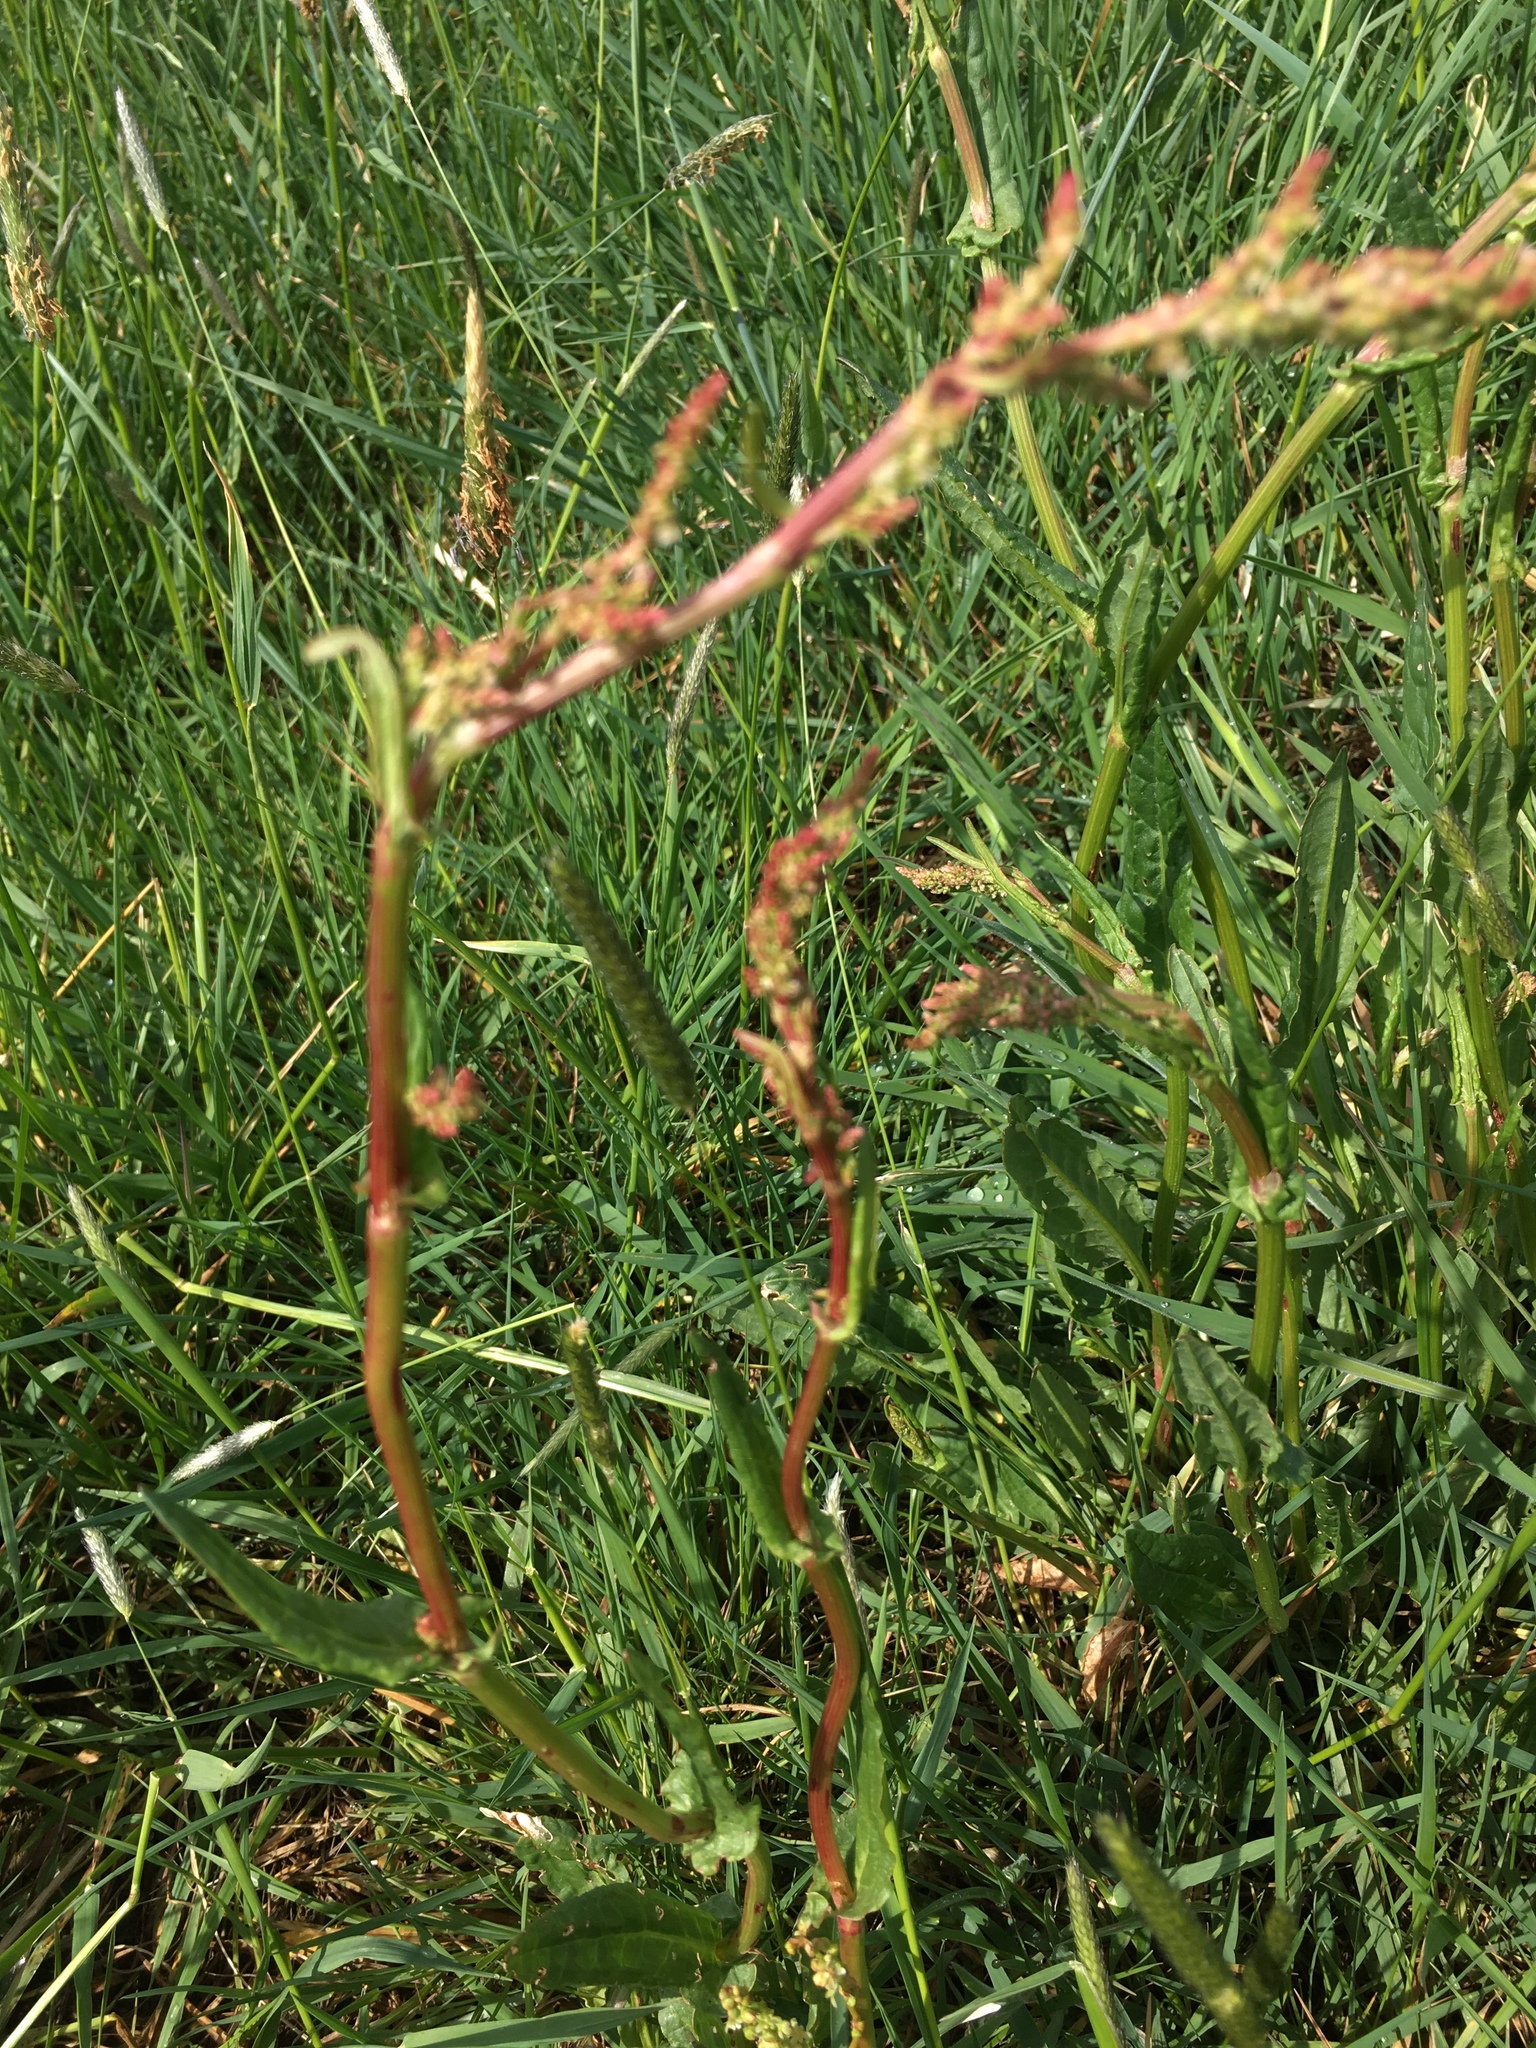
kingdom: Plantae
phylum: Tracheophyta
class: Magnoliopsida
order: Caryophyllales
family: Polygonaceae
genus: Rumex
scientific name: Rumex acetosa
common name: Garden sorrel
